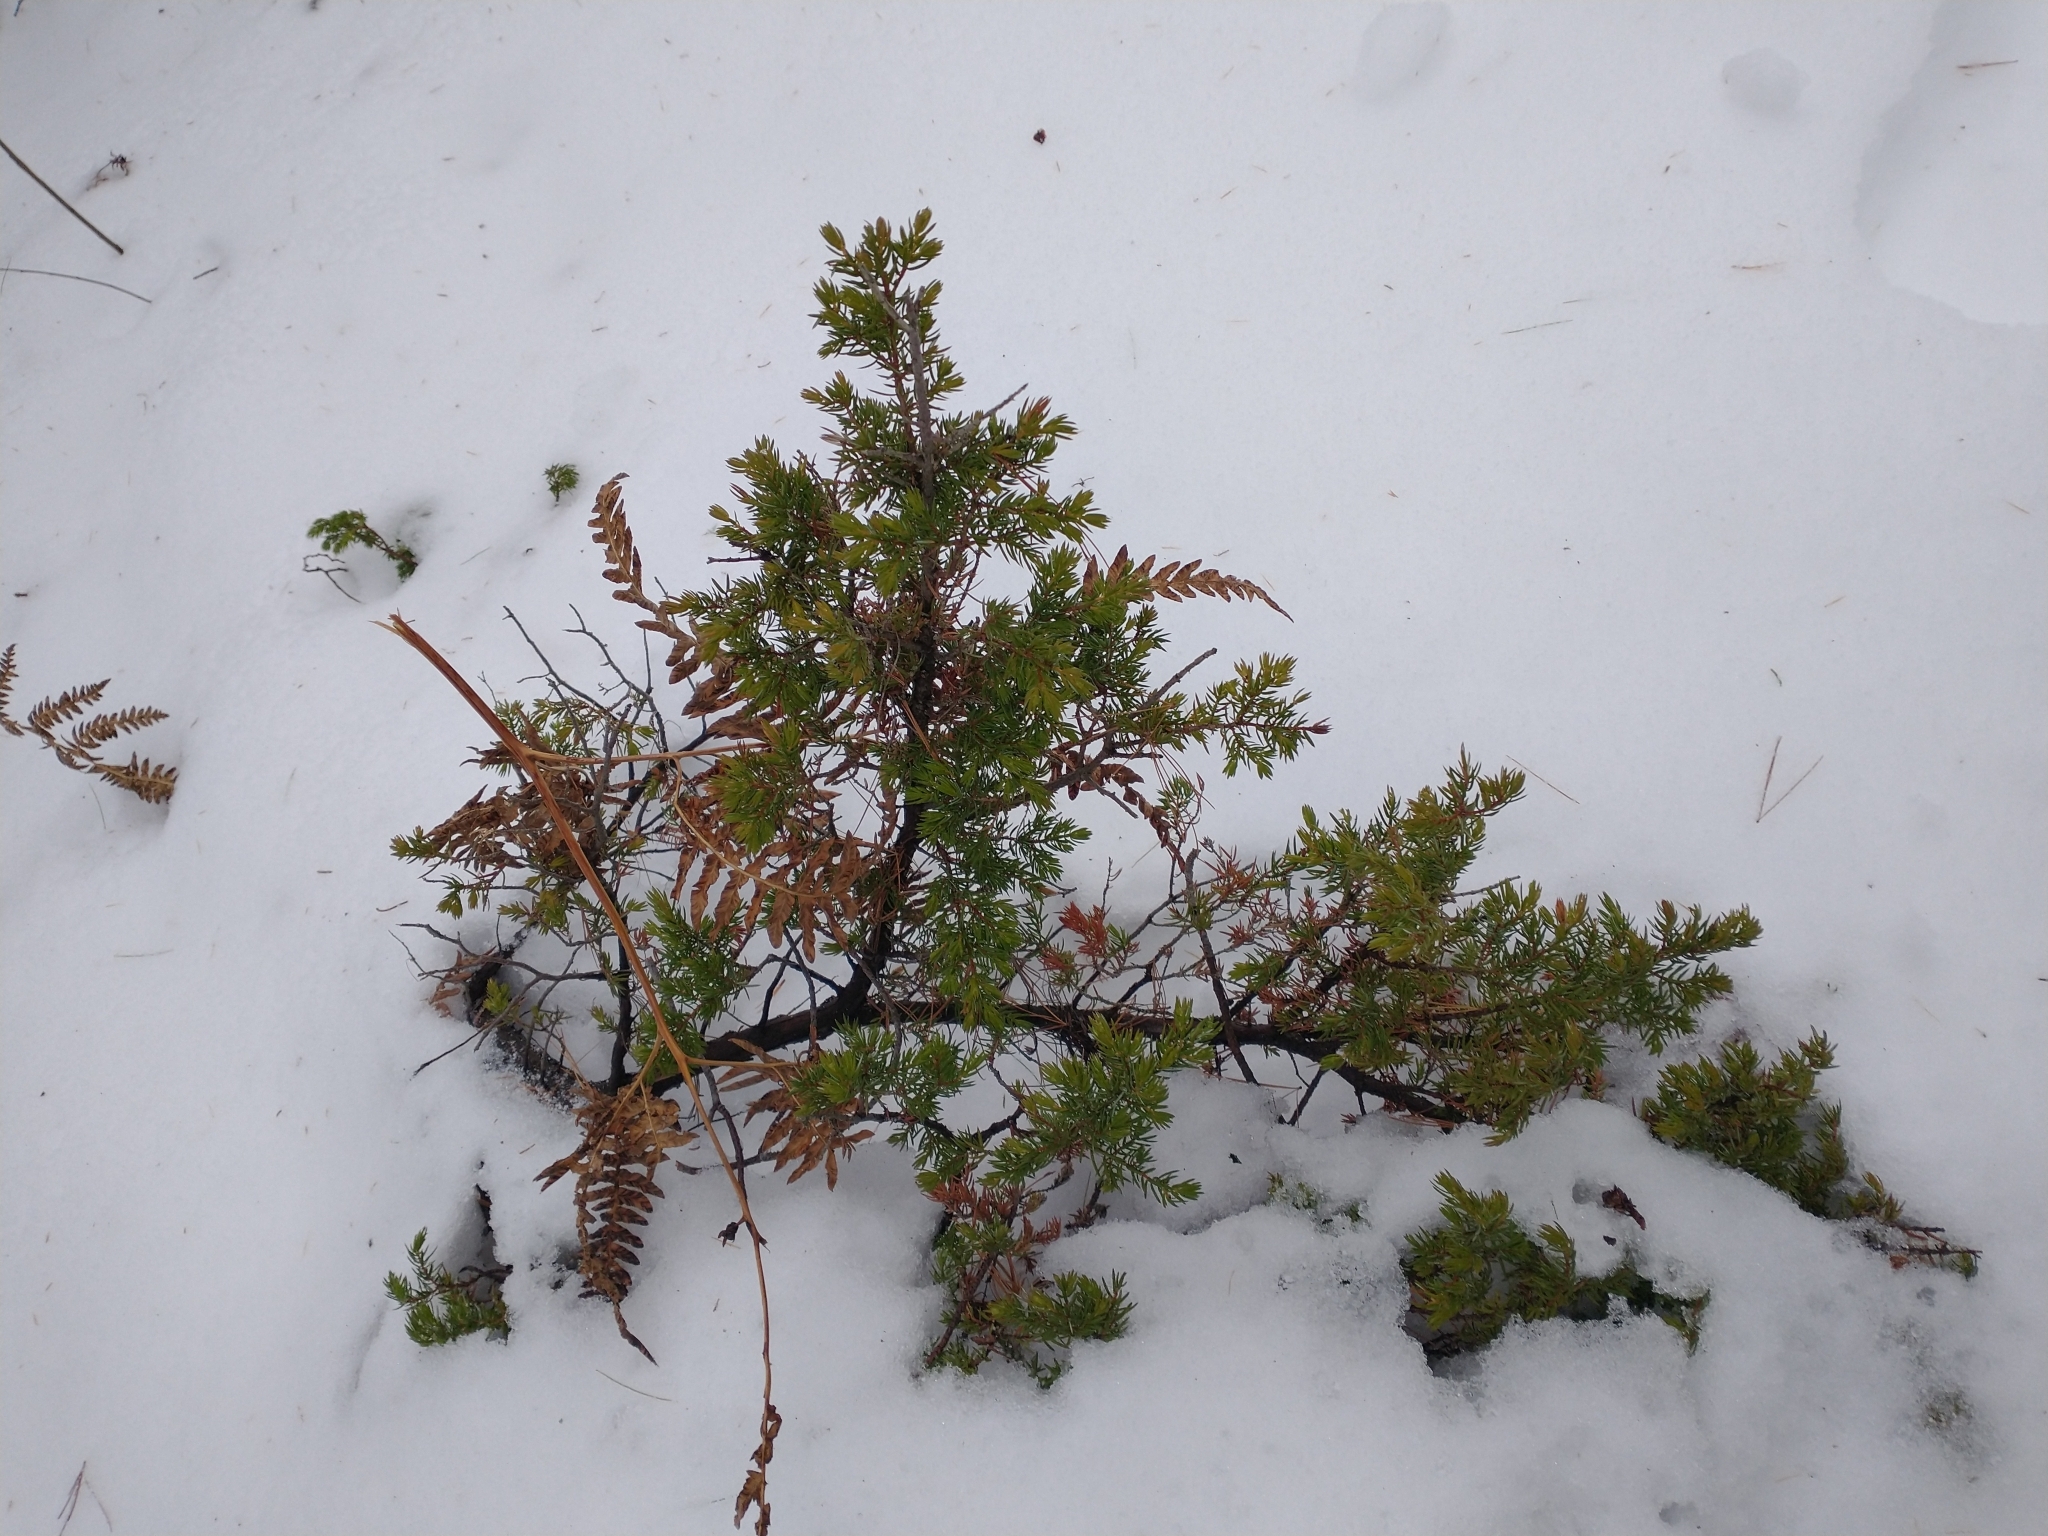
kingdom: Plantae
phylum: Tracheophyta
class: Pinopsida
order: Pinales
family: Cupressaceae
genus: Juniperus
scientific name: Juniperus communis
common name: Common juniper
